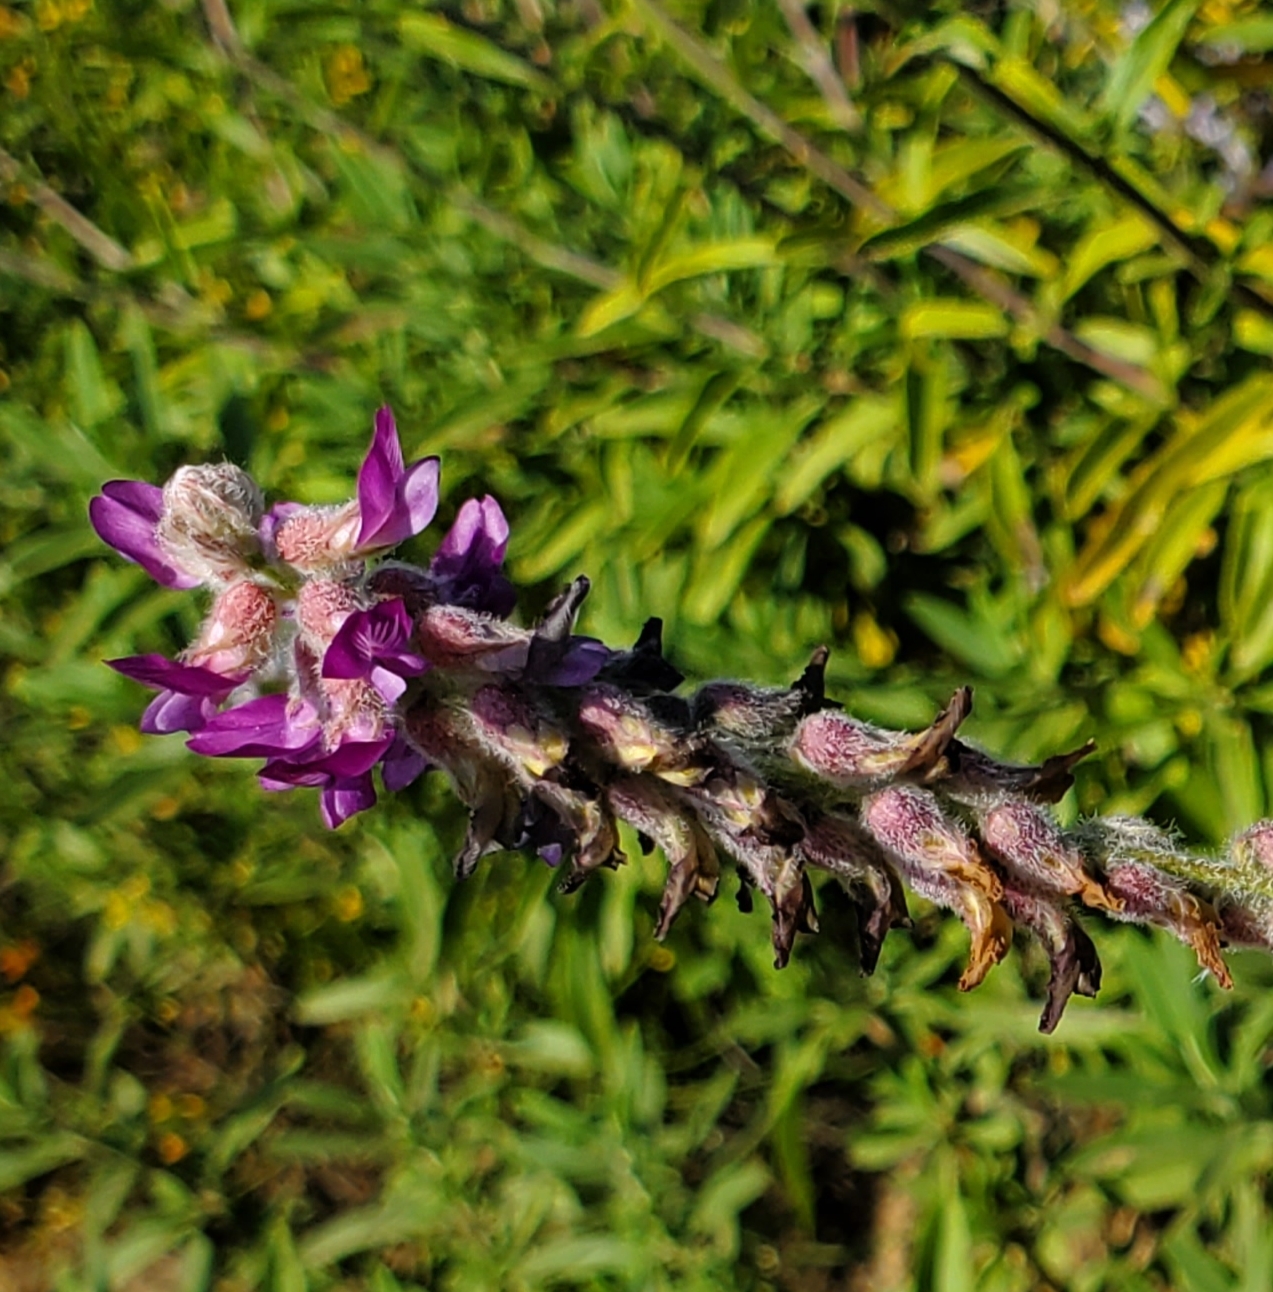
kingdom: Plantae
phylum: Tracheophyta
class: Magnoliopsida
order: Fabales
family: Fabaceae
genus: Astragalus
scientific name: Astragalus brauntonii
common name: Braunton's milk-vetch
